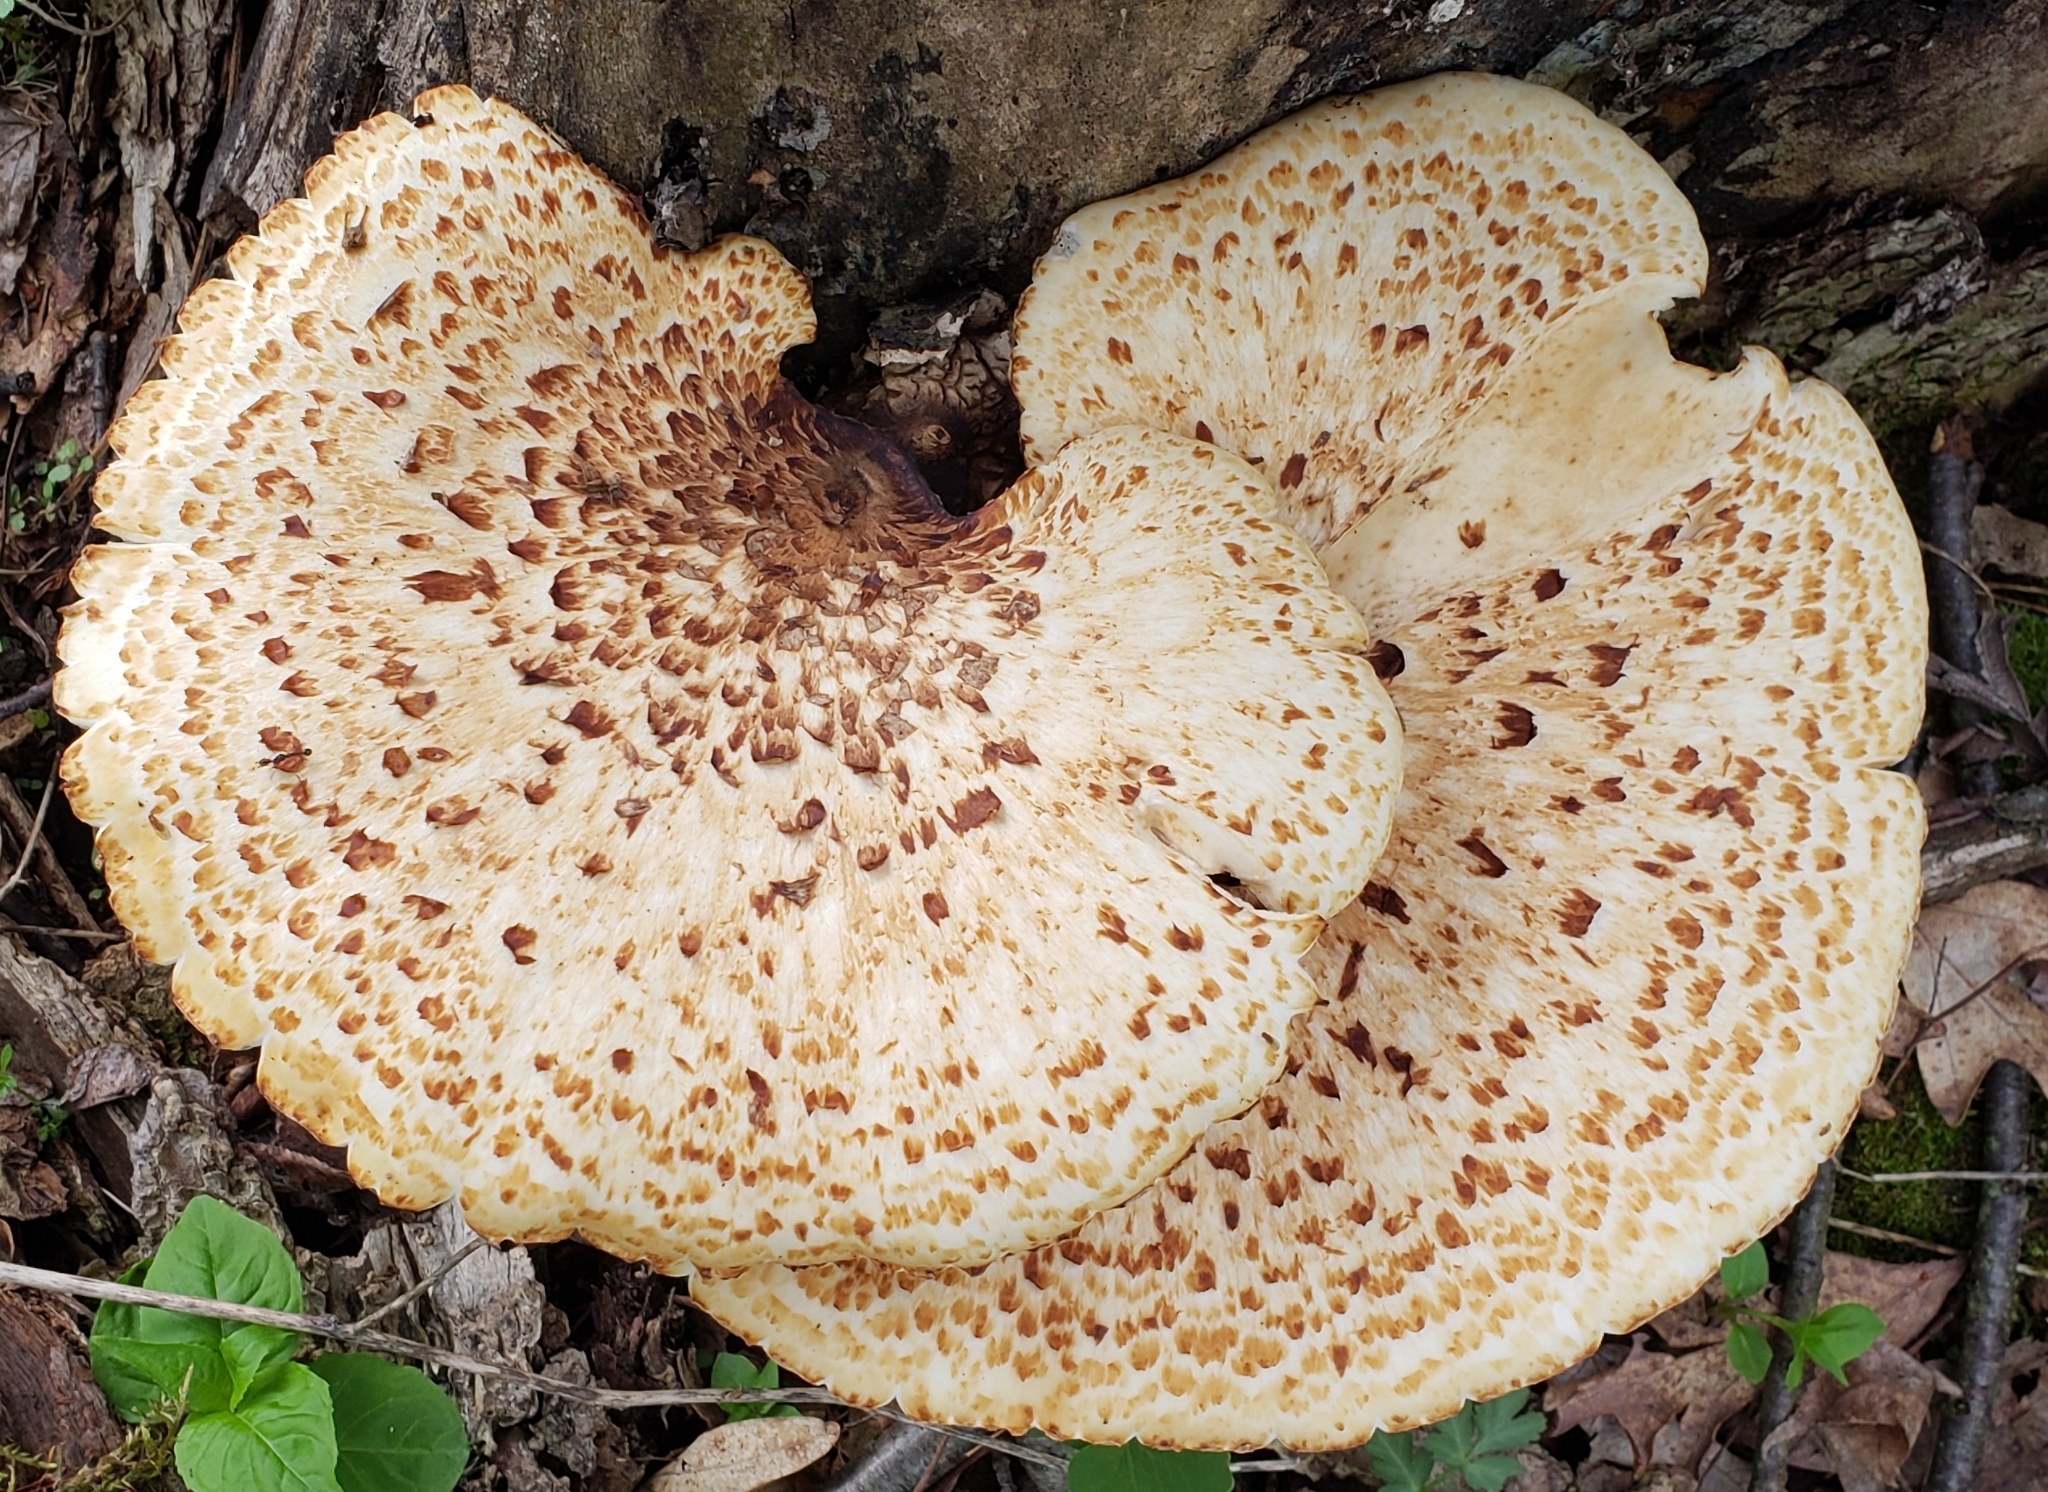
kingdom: Fungi
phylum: Basidiomycota
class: Agaricomycetes
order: Polyporales
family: Polyporaceae
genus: Cerioporus
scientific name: Cerioporus squamosus
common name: Dryad's saddle
